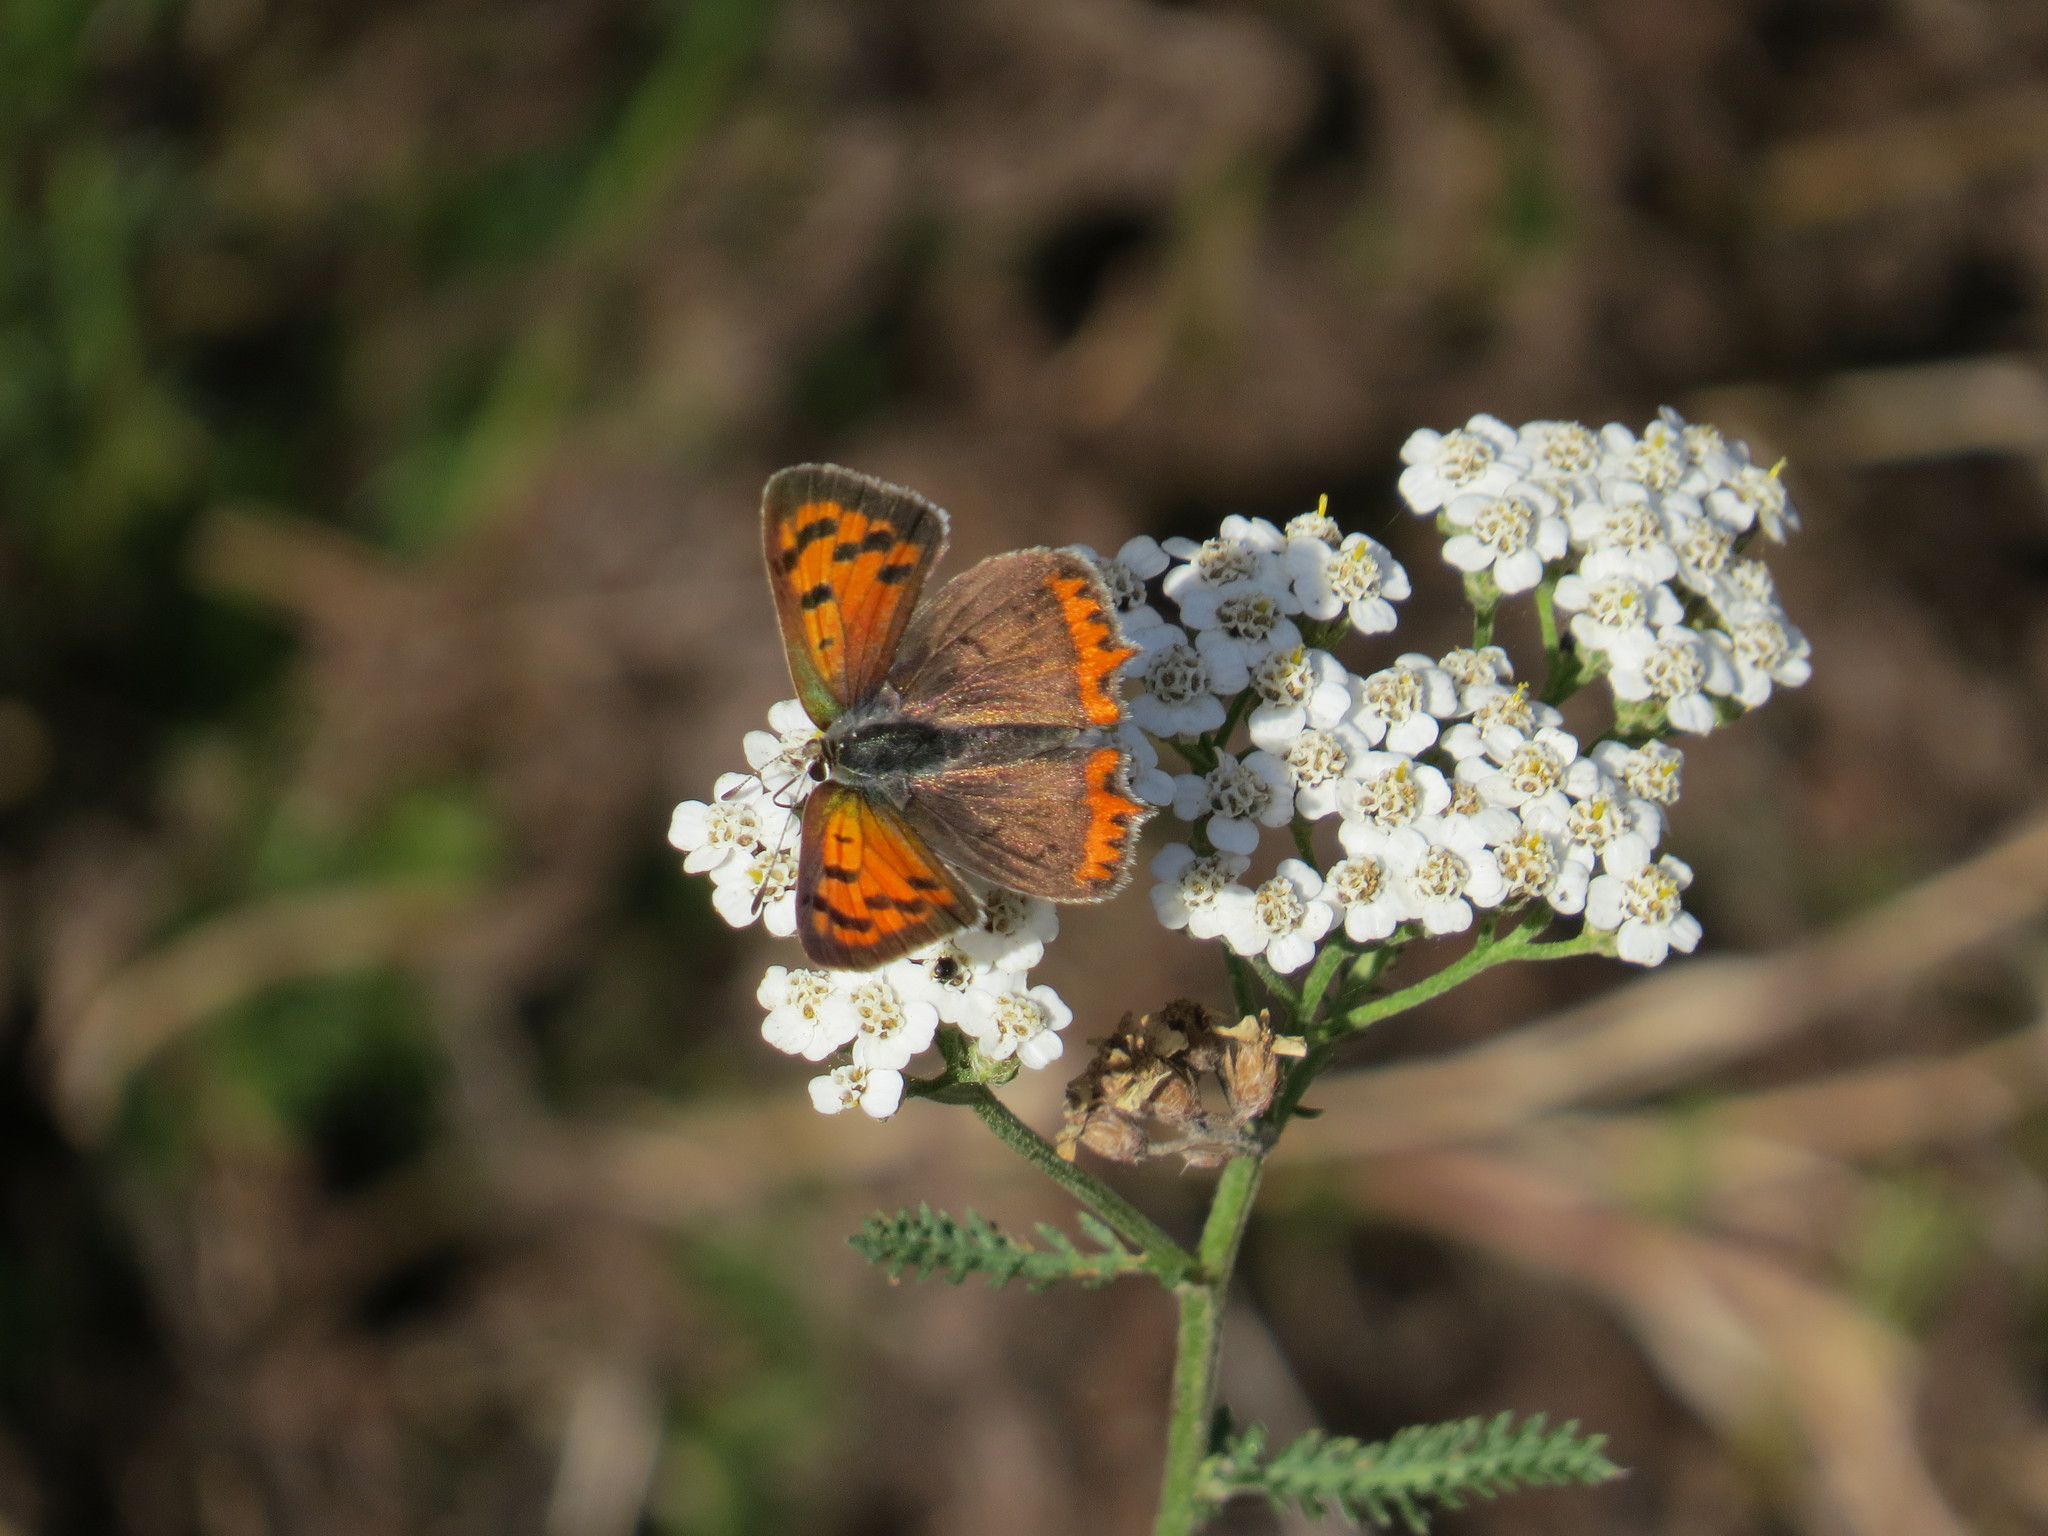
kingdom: Animalia
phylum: Arthropoda
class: Insecta
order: Lepidoptera
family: Lycaenidae
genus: Lycaena
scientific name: Lycaena phlaeas
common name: Small copper
